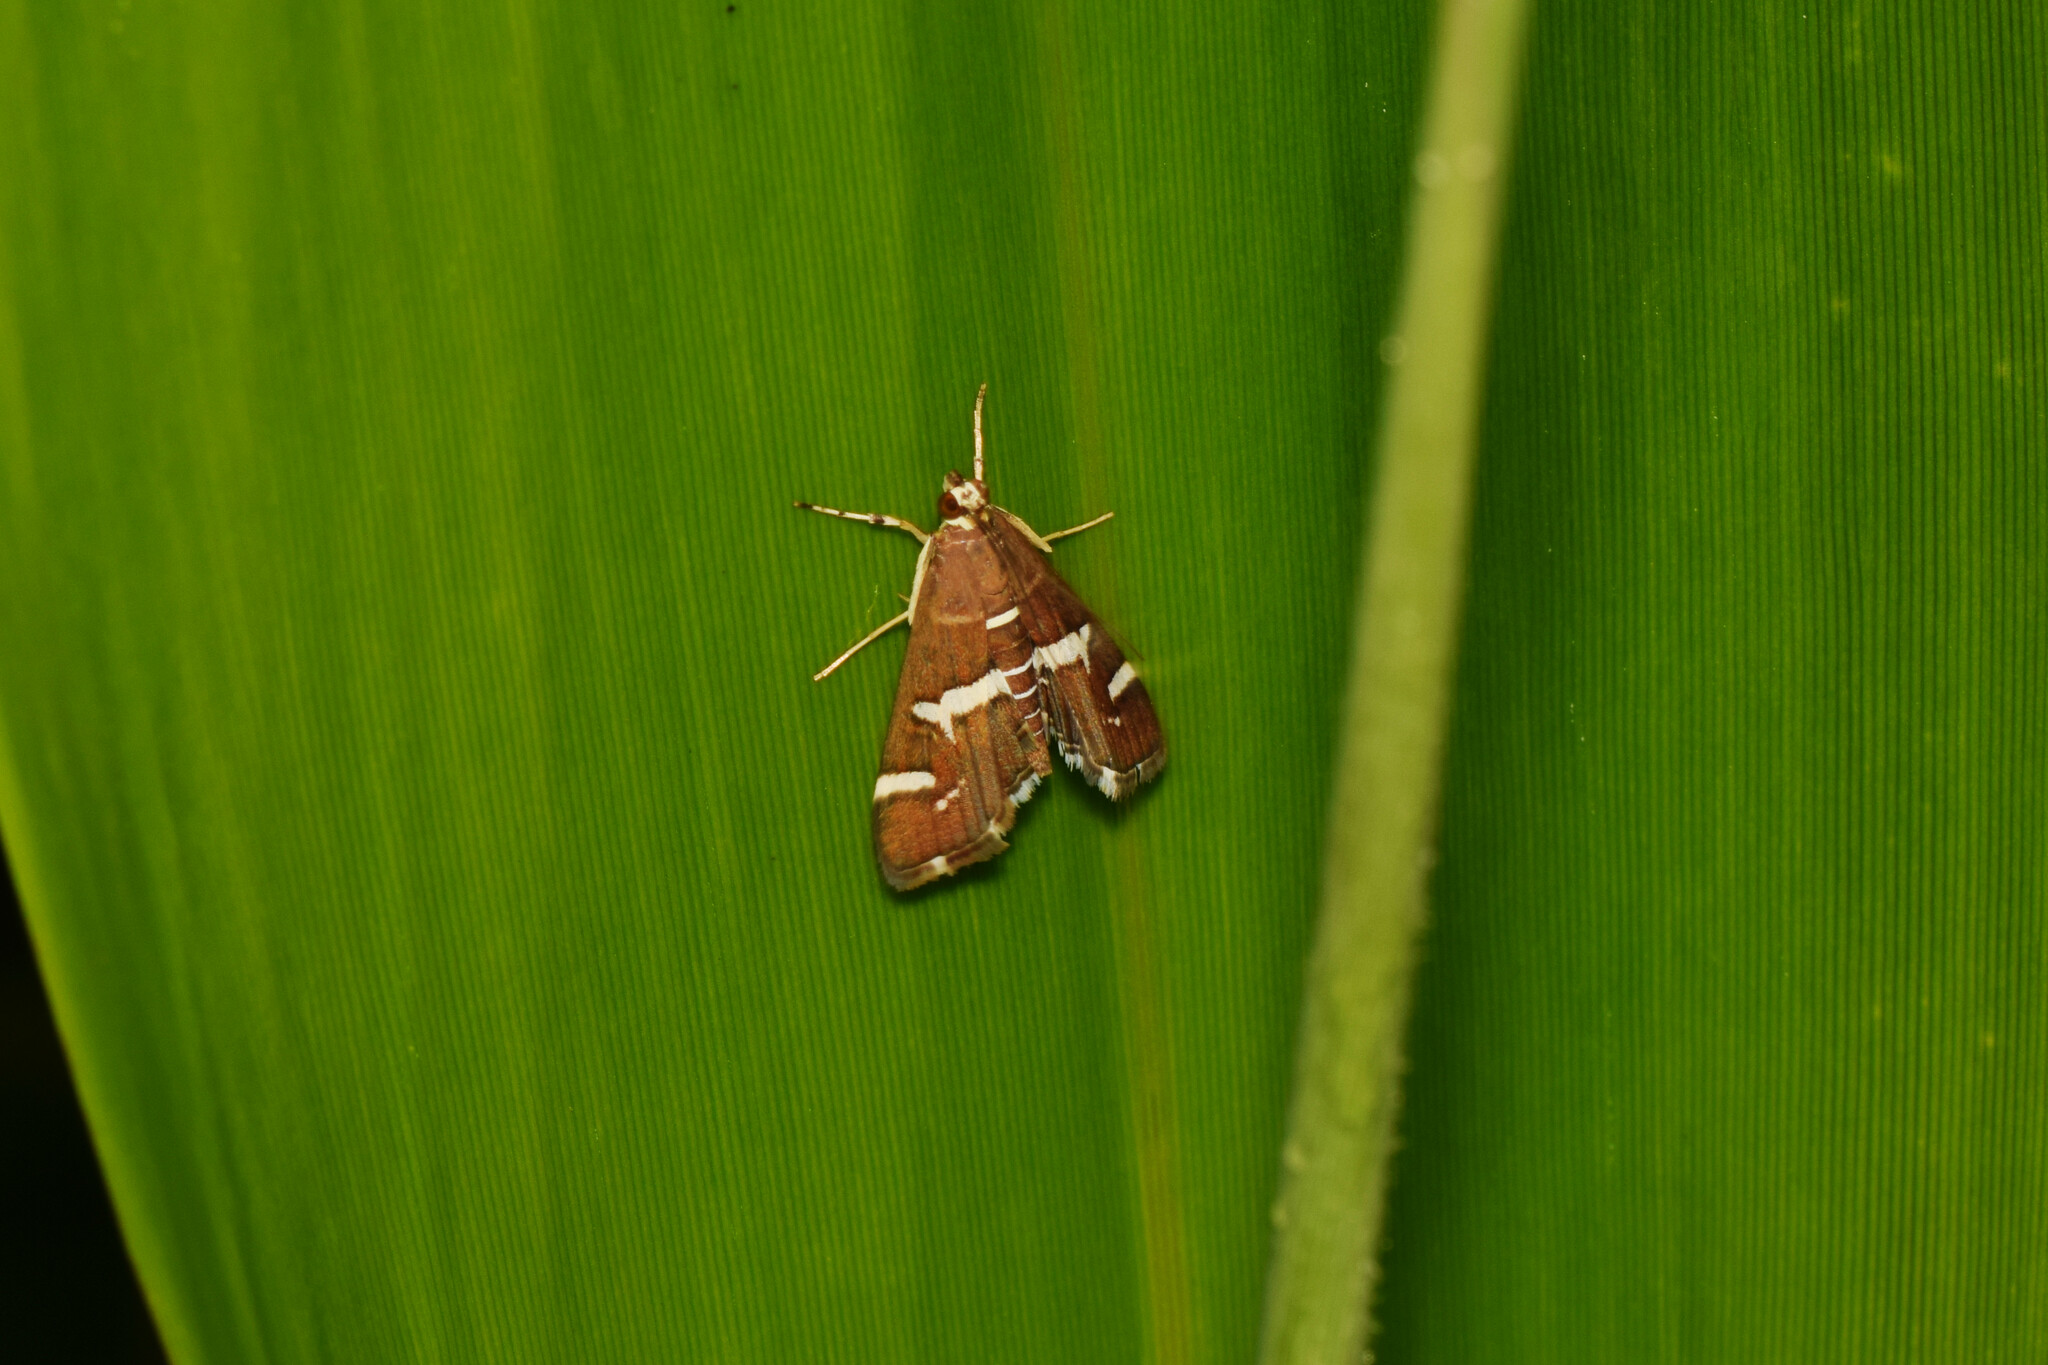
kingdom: Animalia
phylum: Arthropoda
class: Insecta
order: Lepidoptera
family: Crambidae
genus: Spoladea
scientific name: Spoladea recurvalis
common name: Beet webworm moth
